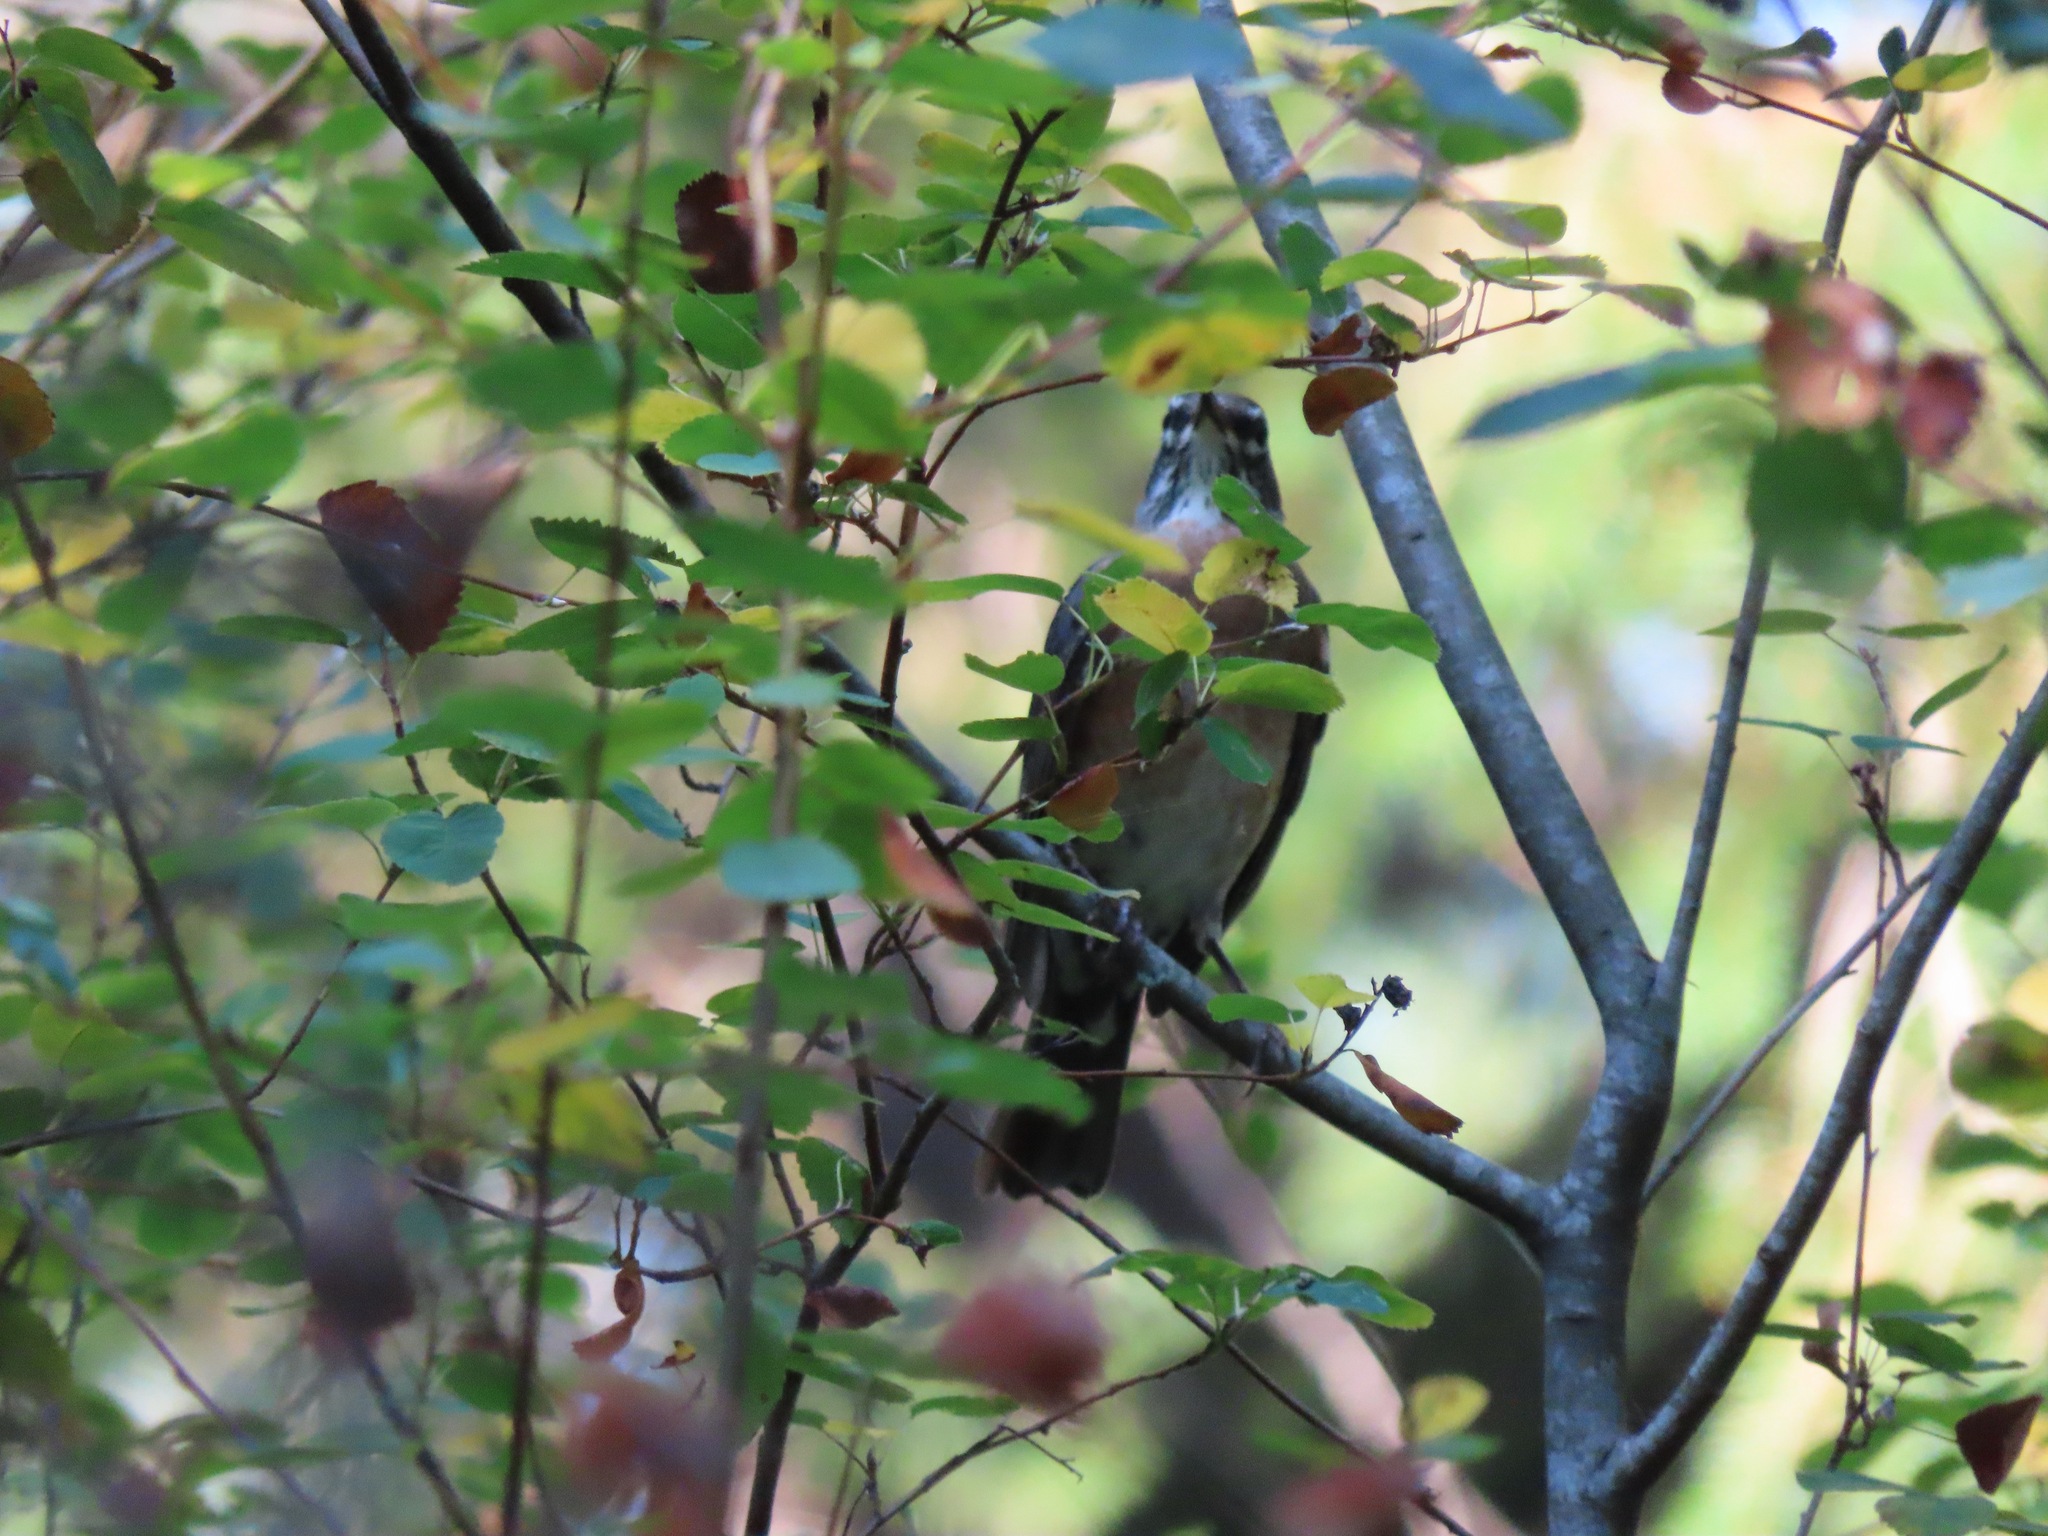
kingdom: Animalia
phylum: Chordata
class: Aves
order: Passeriformes
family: Turdidae
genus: Turdus
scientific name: Turdus migratorius
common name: American robin
